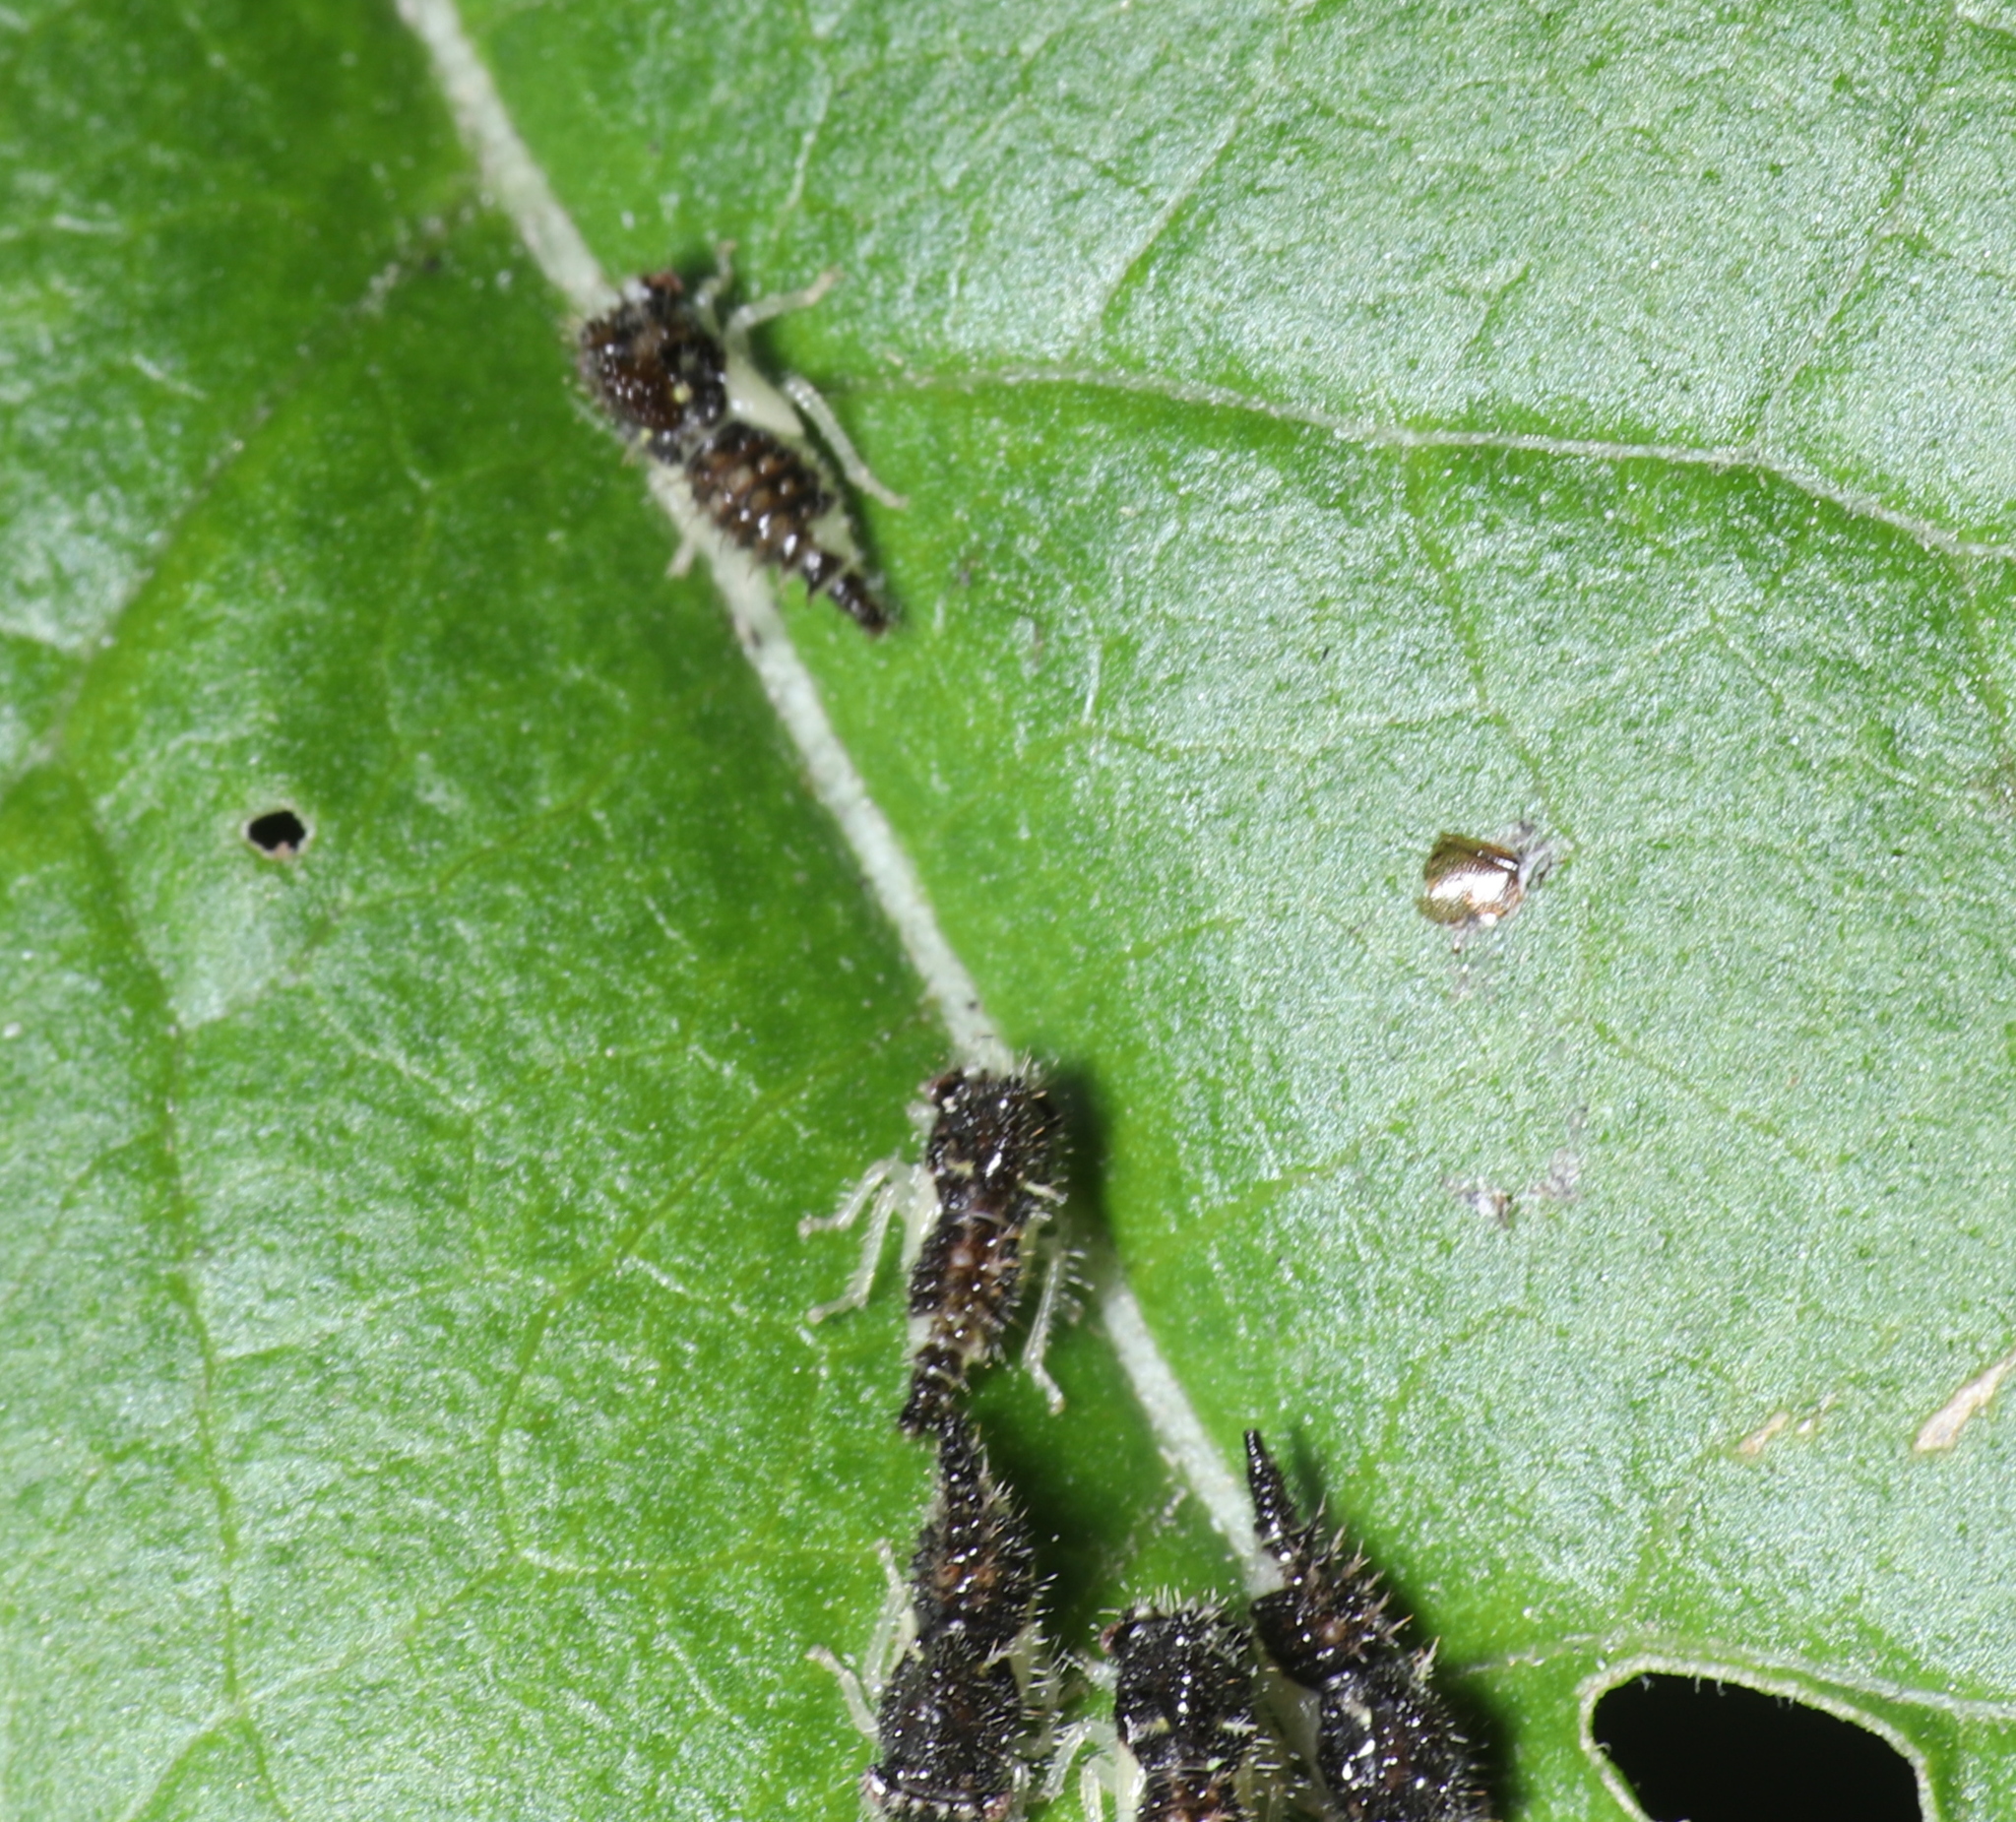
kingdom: Animalia
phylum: Arthropoda
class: Insecta
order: Hemiptera
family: Membracidae
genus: Entylia
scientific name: Entylia carinata
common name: Keeled treehopper
